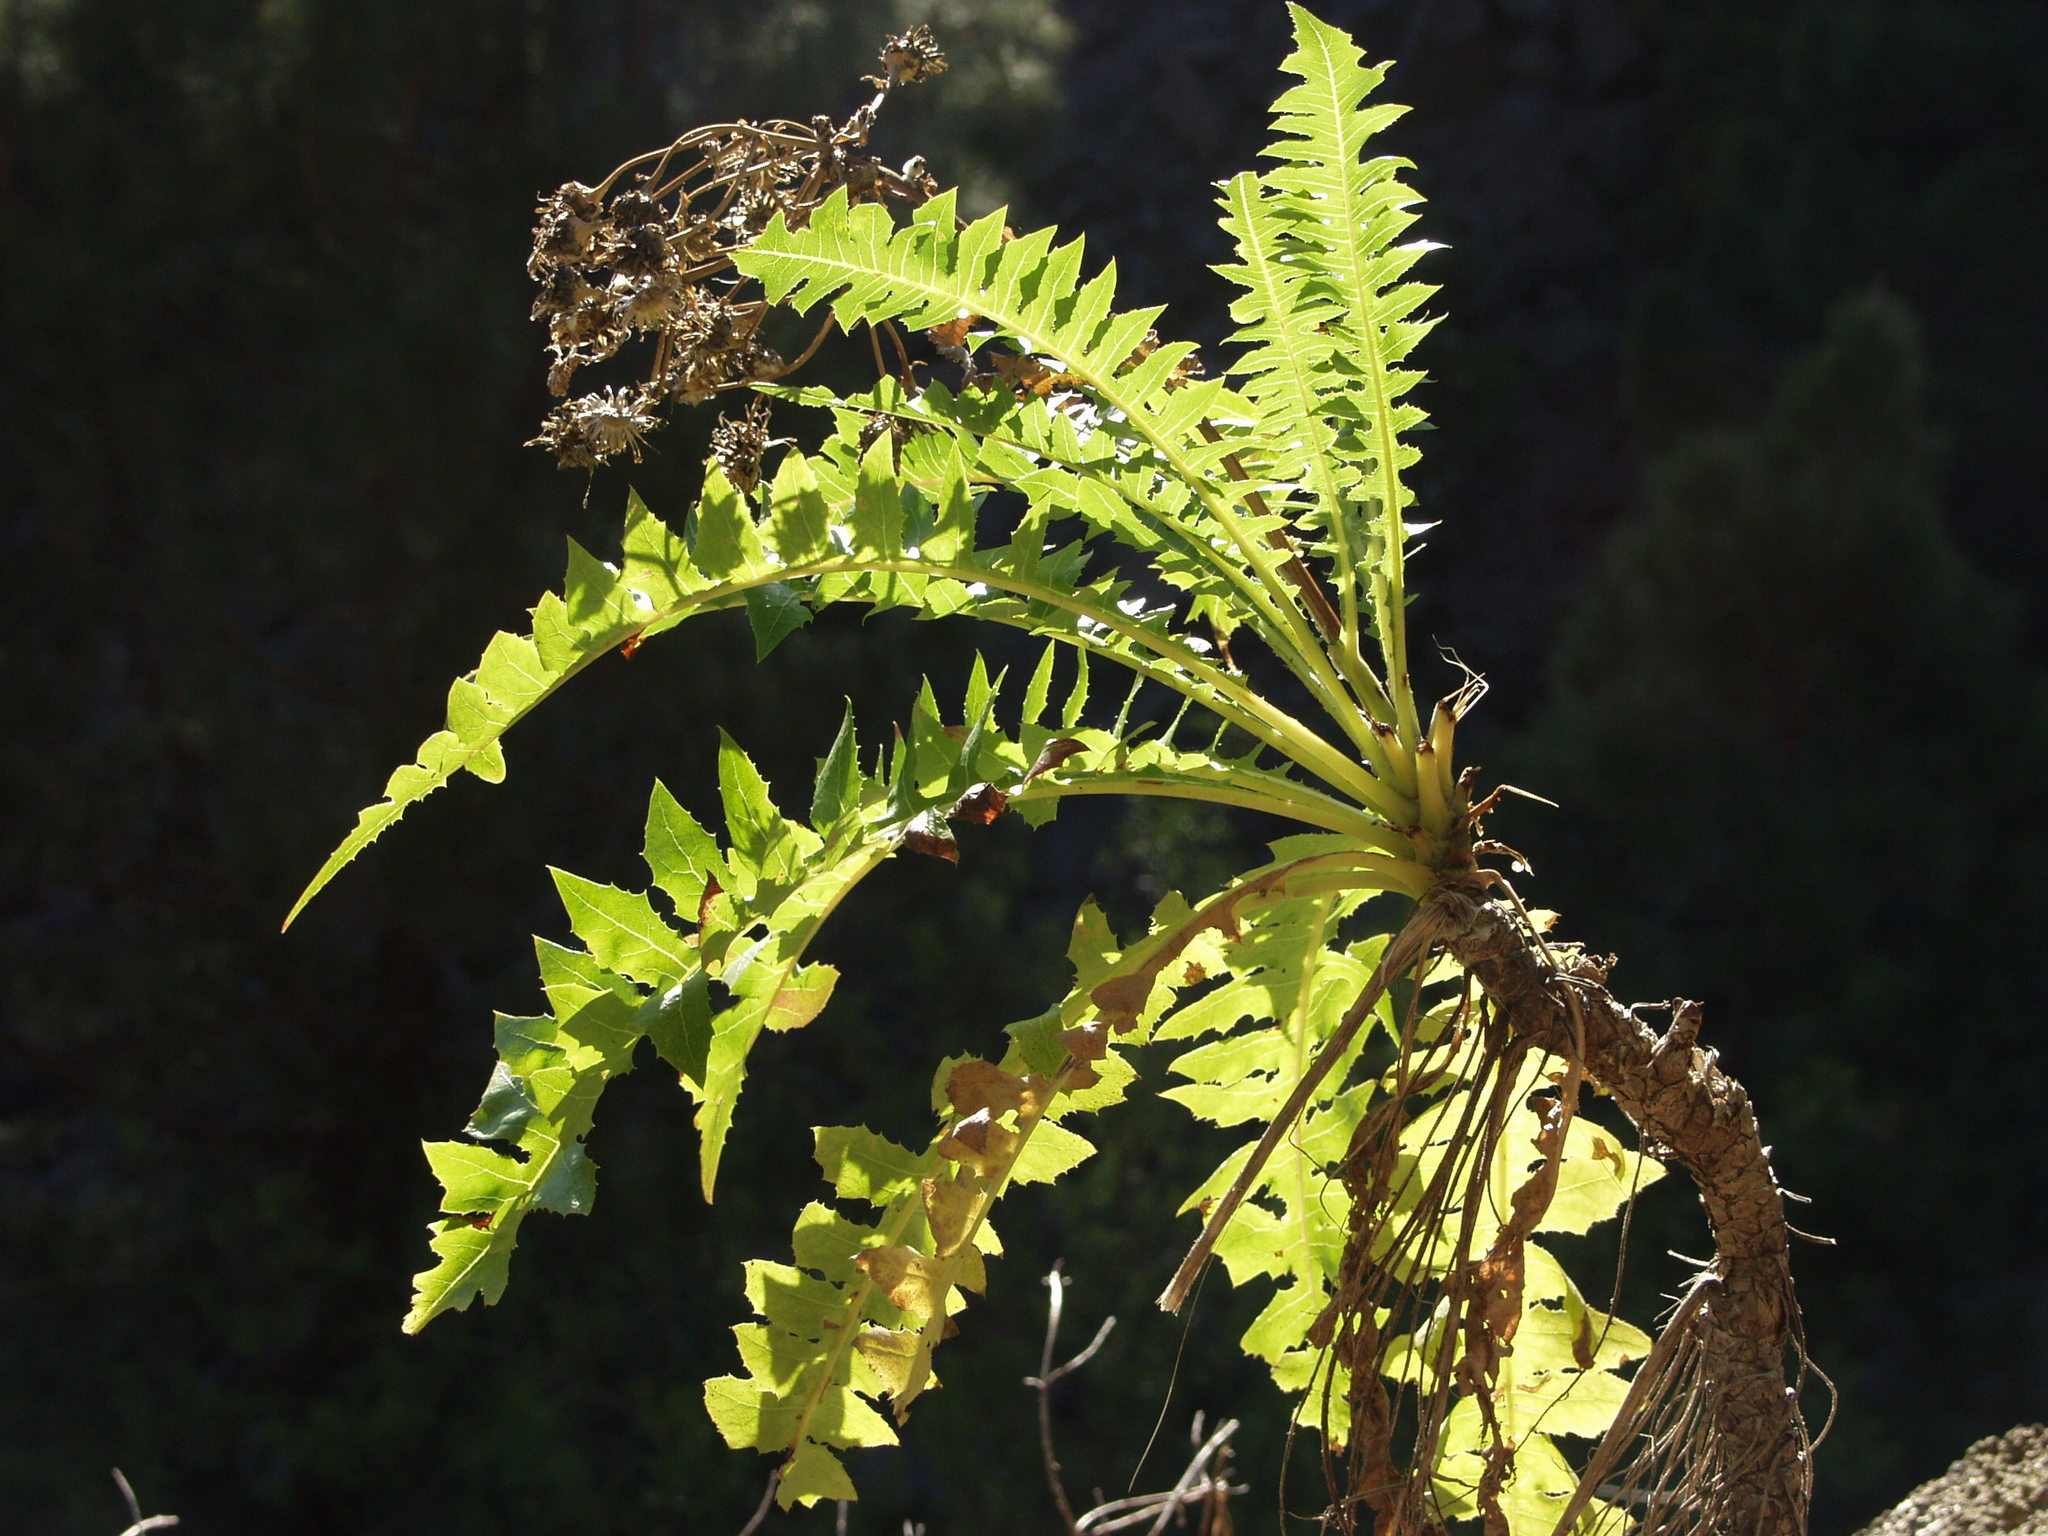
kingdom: Plantae
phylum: Tracheophyta
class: Magnoliopsida
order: Asterales
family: Asteraceae
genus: Sonchus
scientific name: Sonchus hierrensis
